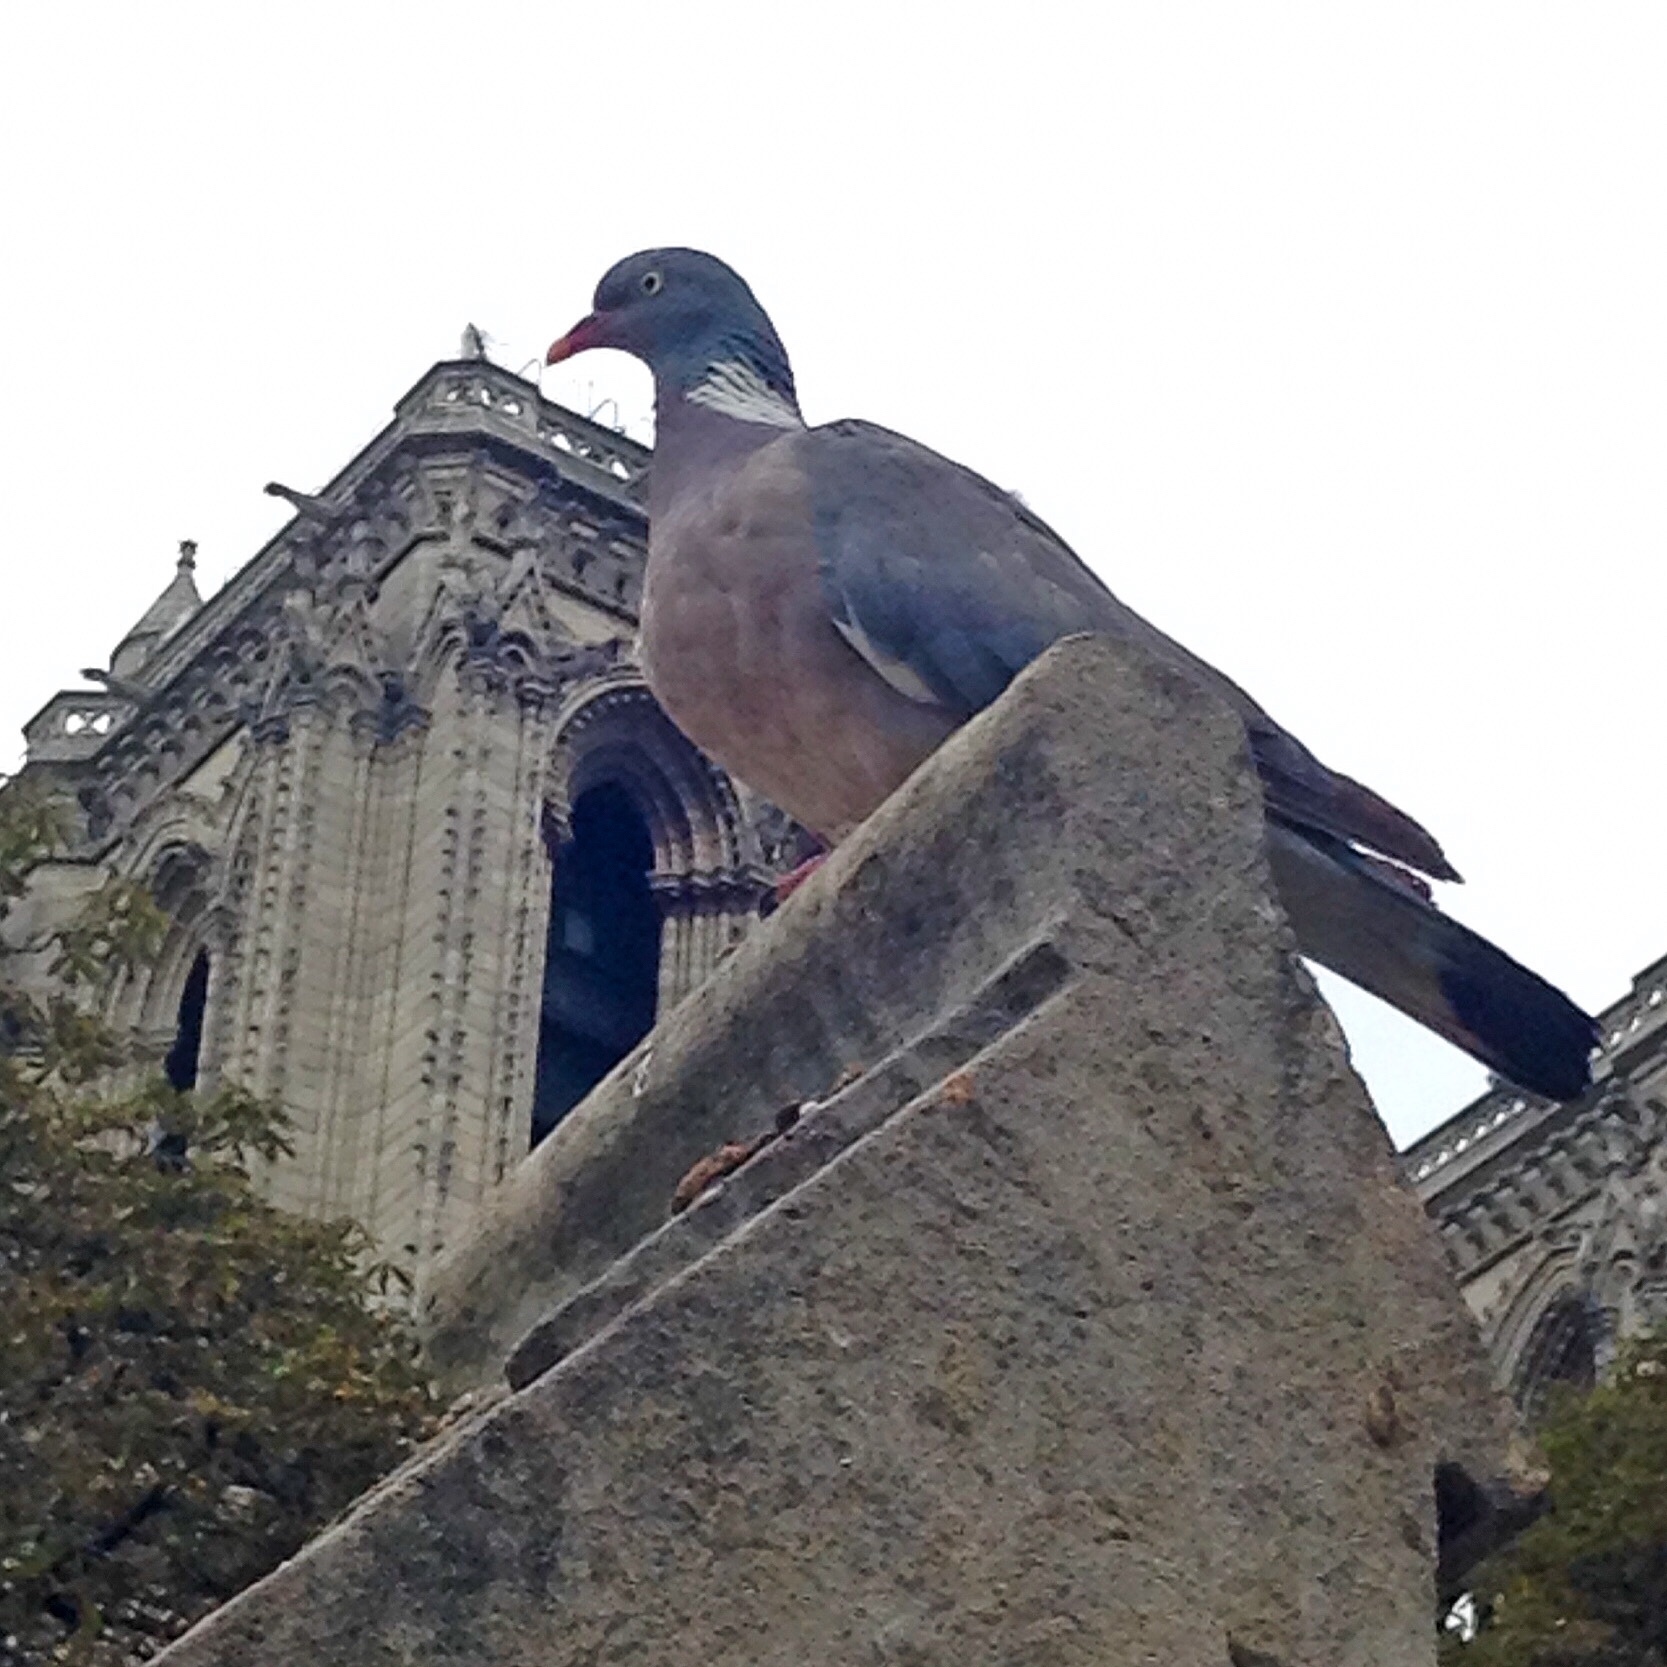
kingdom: Animalia
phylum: Chordata
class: Aves
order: Columbiformes
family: Columbidae
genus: Columba
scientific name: Columba palumbus
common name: Common wood pigeon
